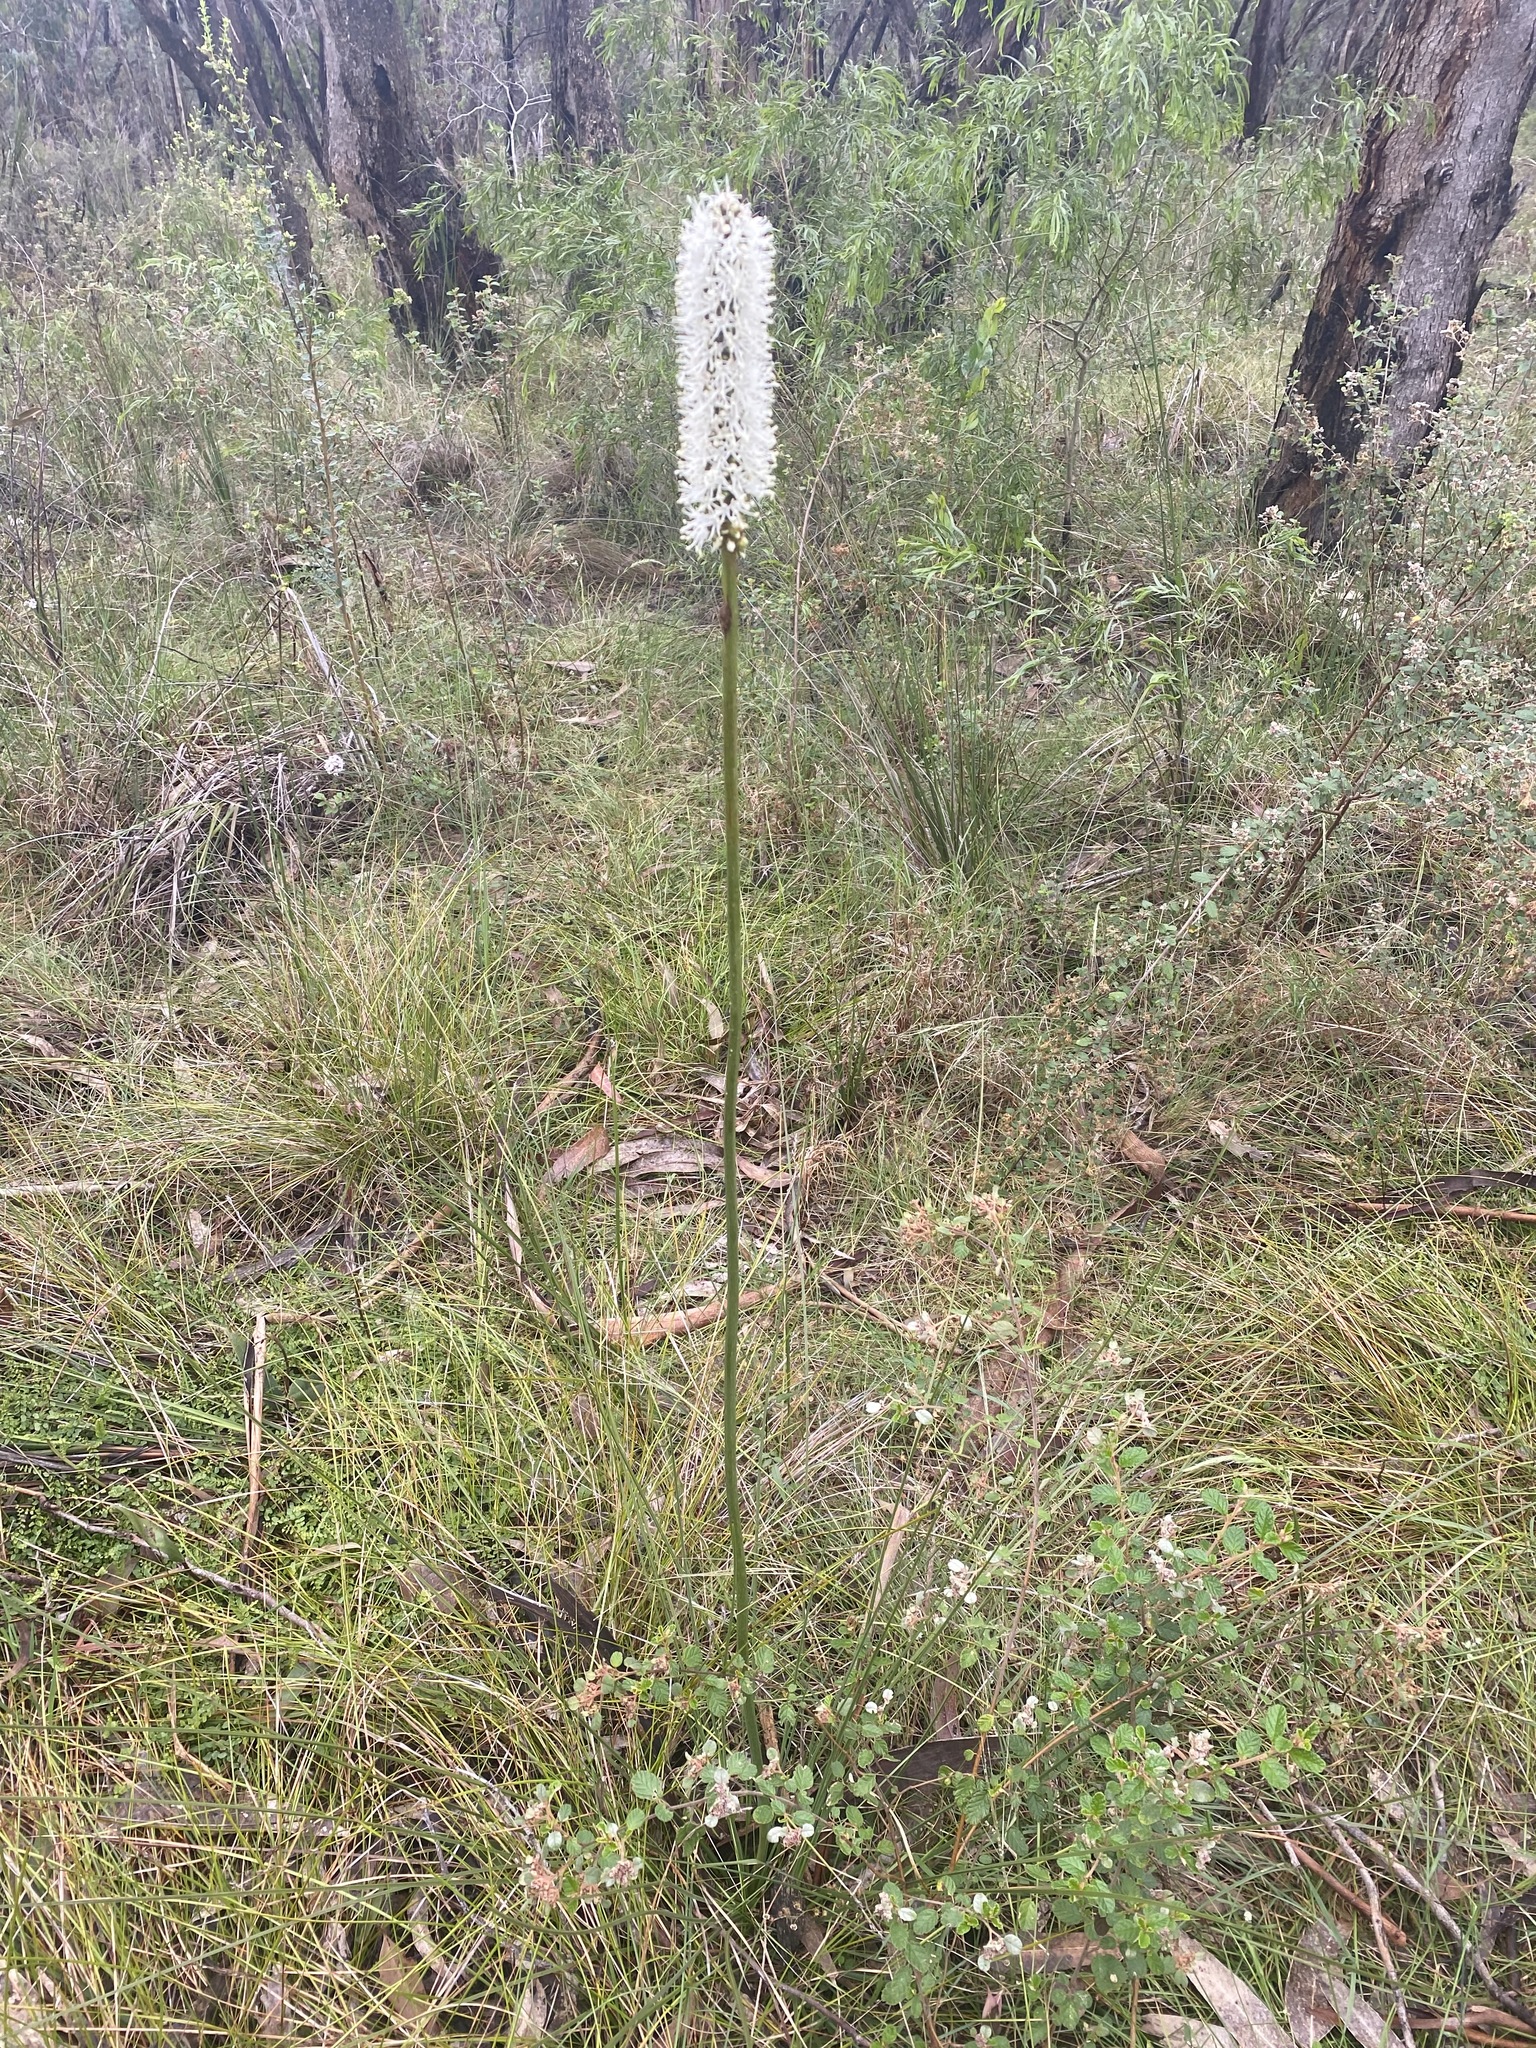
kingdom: Plantae
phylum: Tracheophyta
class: Liliopsida
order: Asparagales
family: Asphodelaceae
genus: Xanthorrhoea
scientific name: Xanthorrhoea minor
